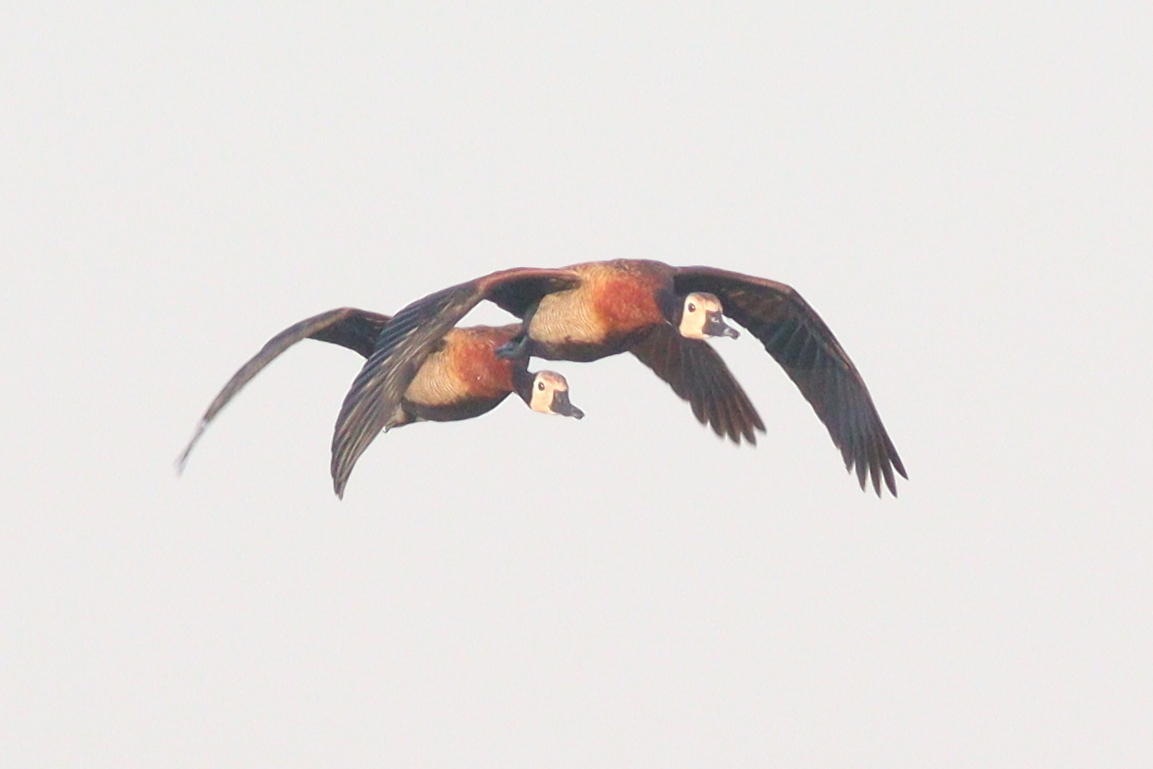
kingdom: Animalia
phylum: Chordata
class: Aves
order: Anseriformes
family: Anatidae
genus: Dendrocygna
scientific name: Dendrocygna viduata
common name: White-faced whistling duck
